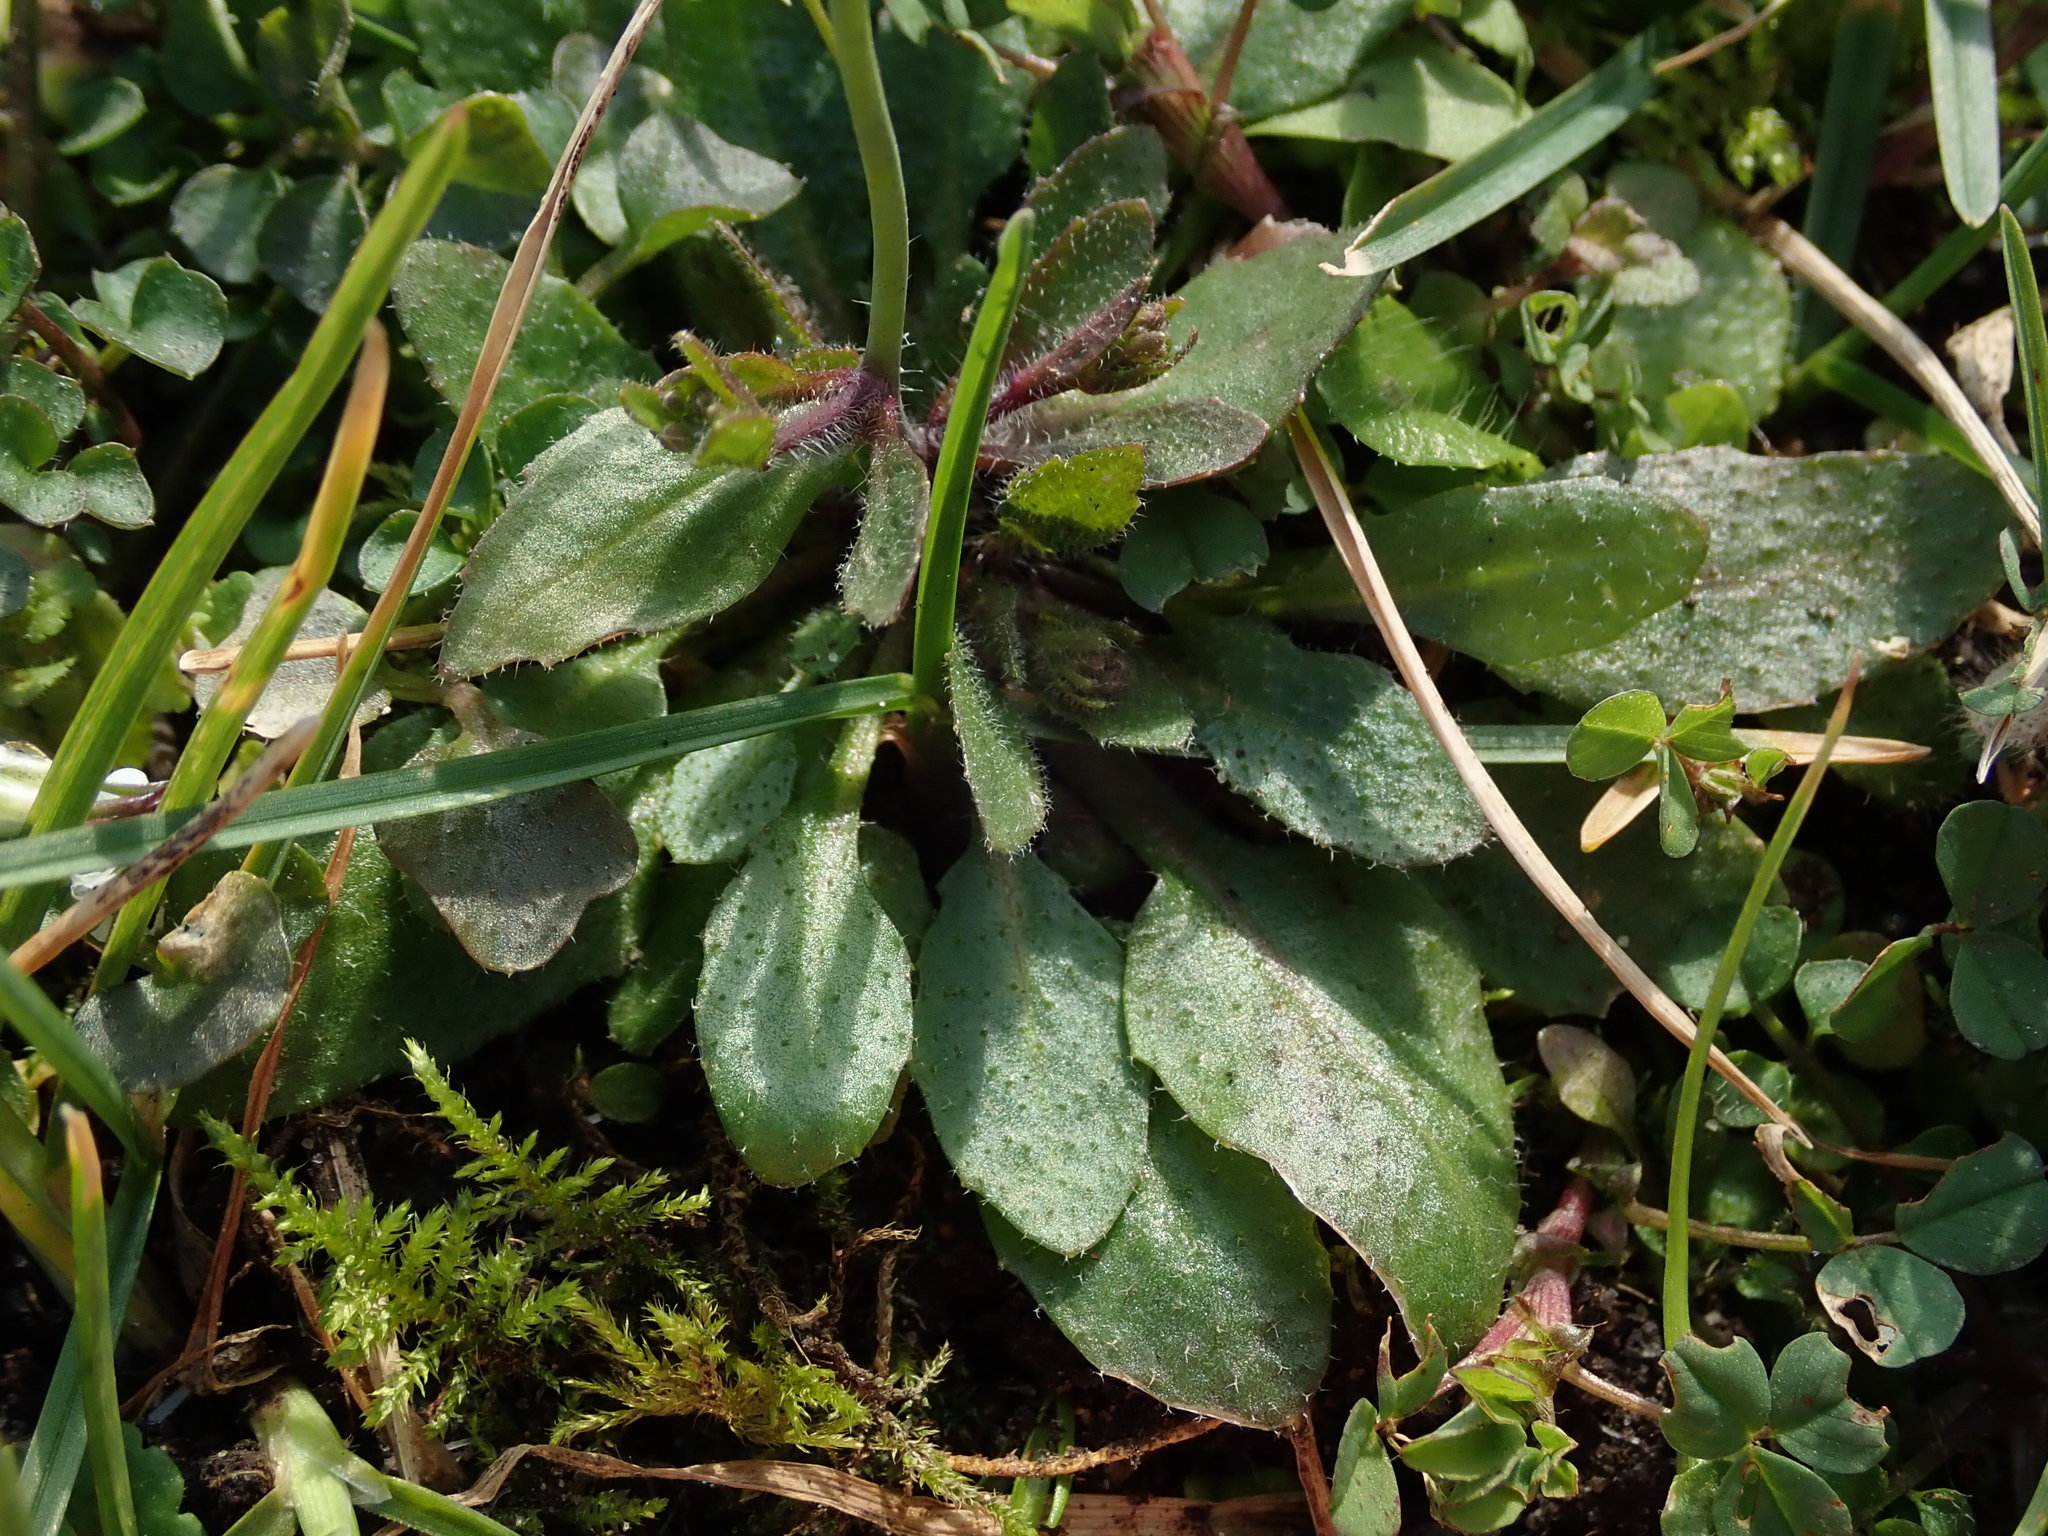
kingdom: Plantae
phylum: Tracheophyta
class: Magnoliopsida
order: Brassicales
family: Brassicaceae
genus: Arabidopsis
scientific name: Arabidopsis thaliana
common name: Thale cress
